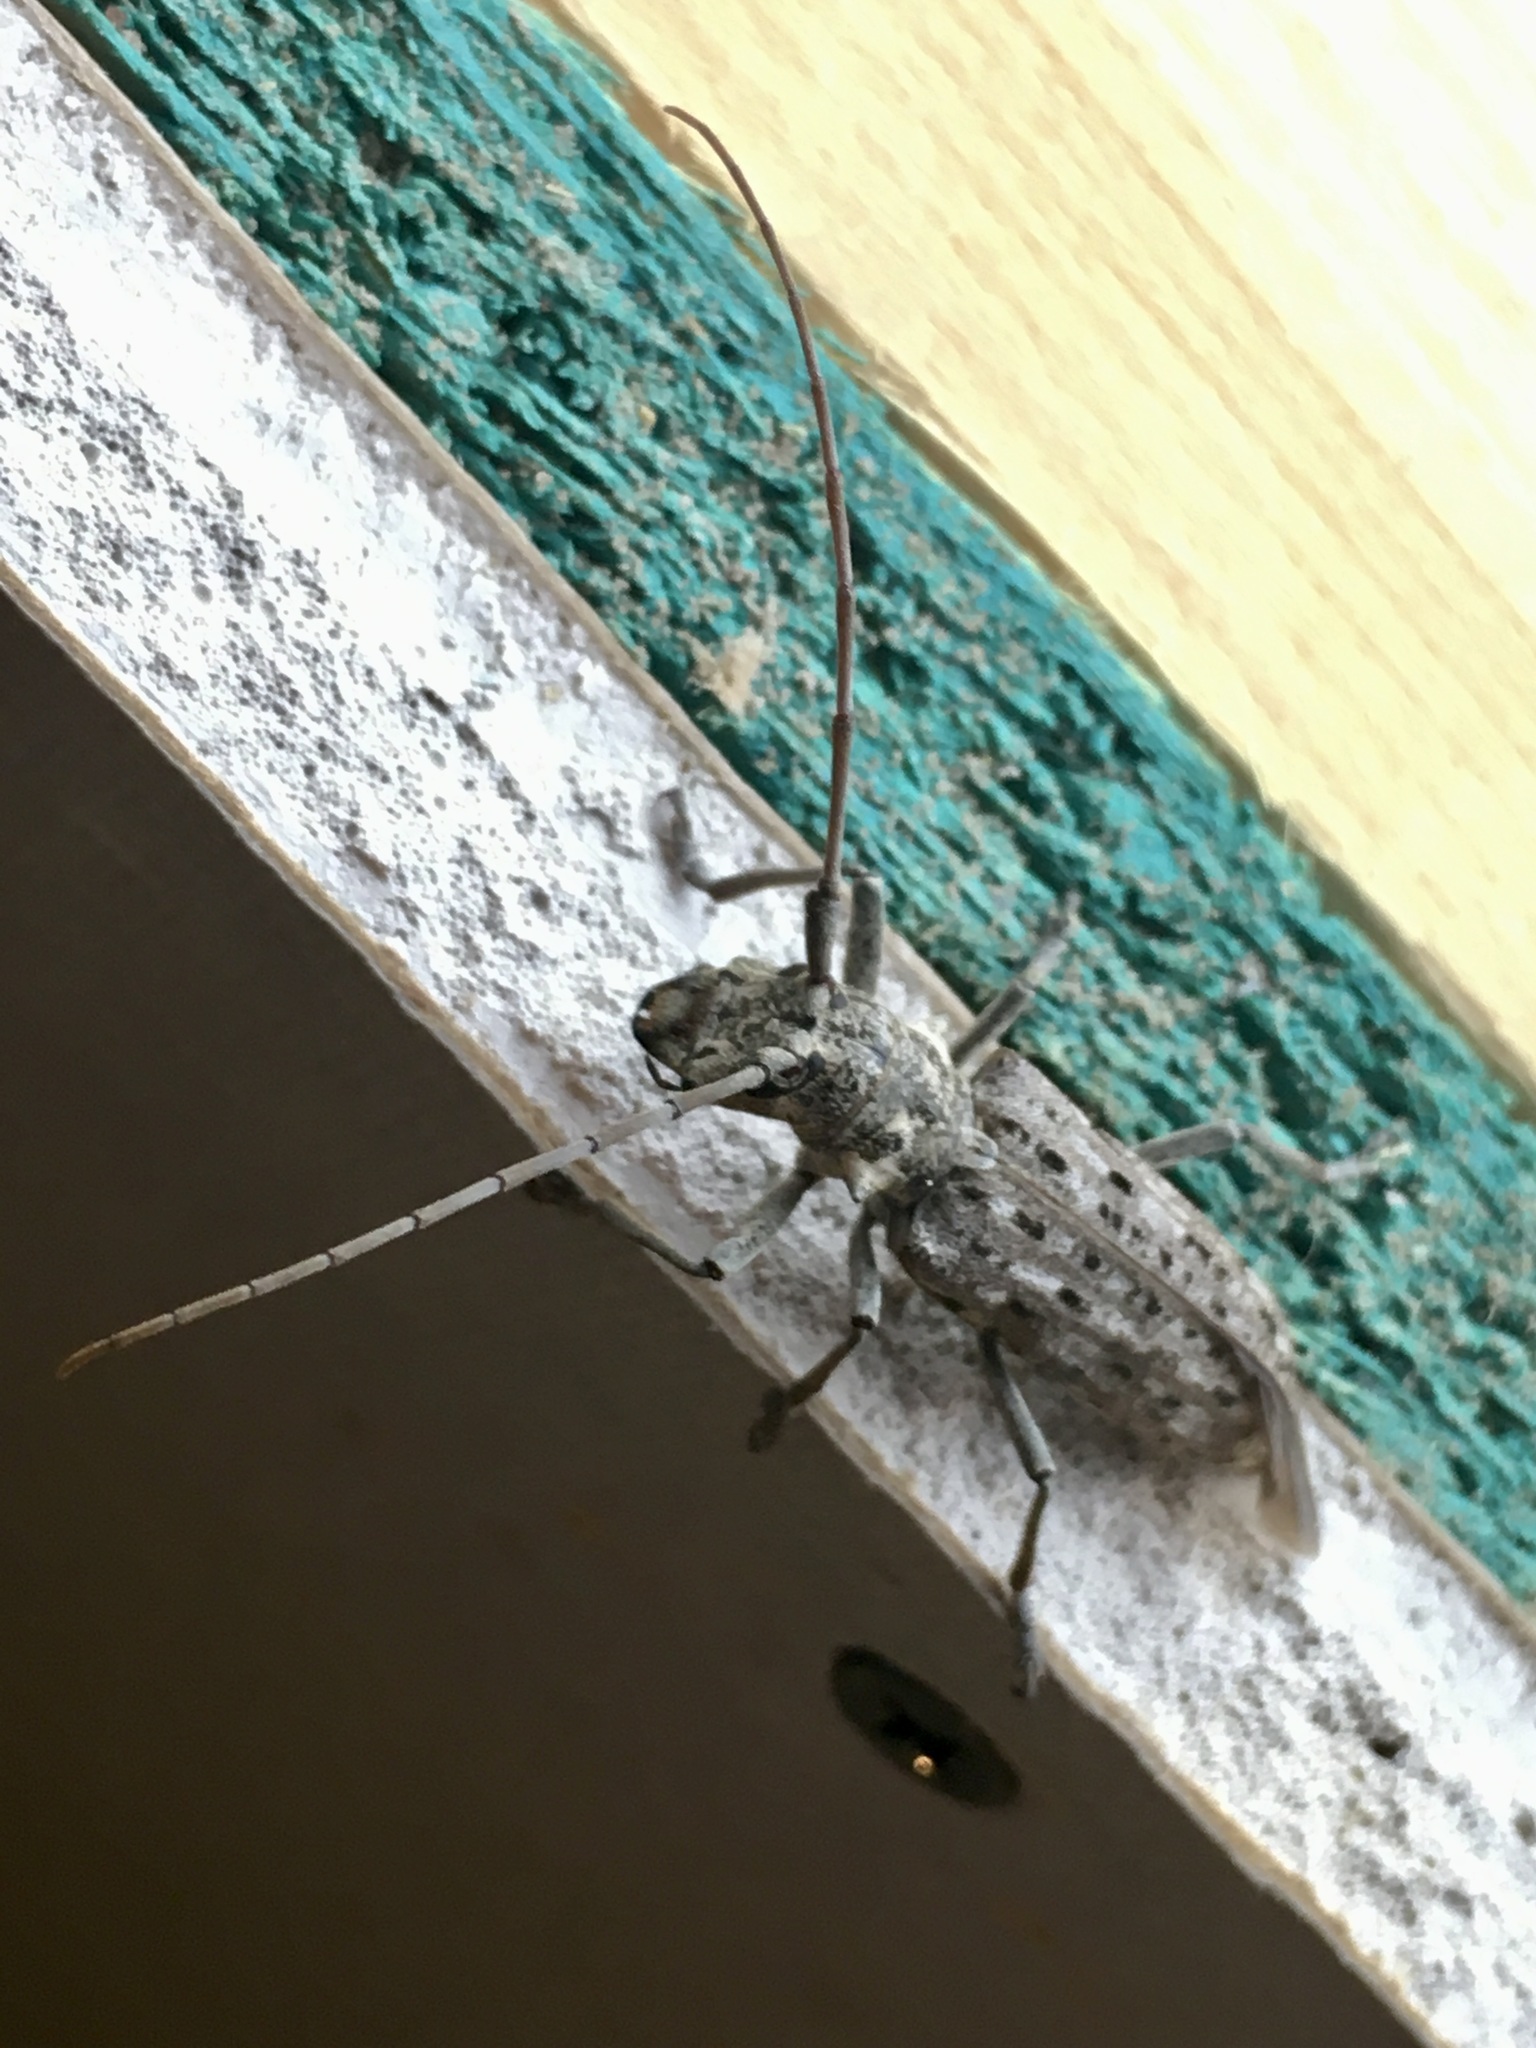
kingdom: Animalia
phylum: Arthropoda
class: Insecta
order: Coleoptera
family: Cerambycidae
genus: Monochamus
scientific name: Monochamus notatus
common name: Northeastern pine sawyer beetle
